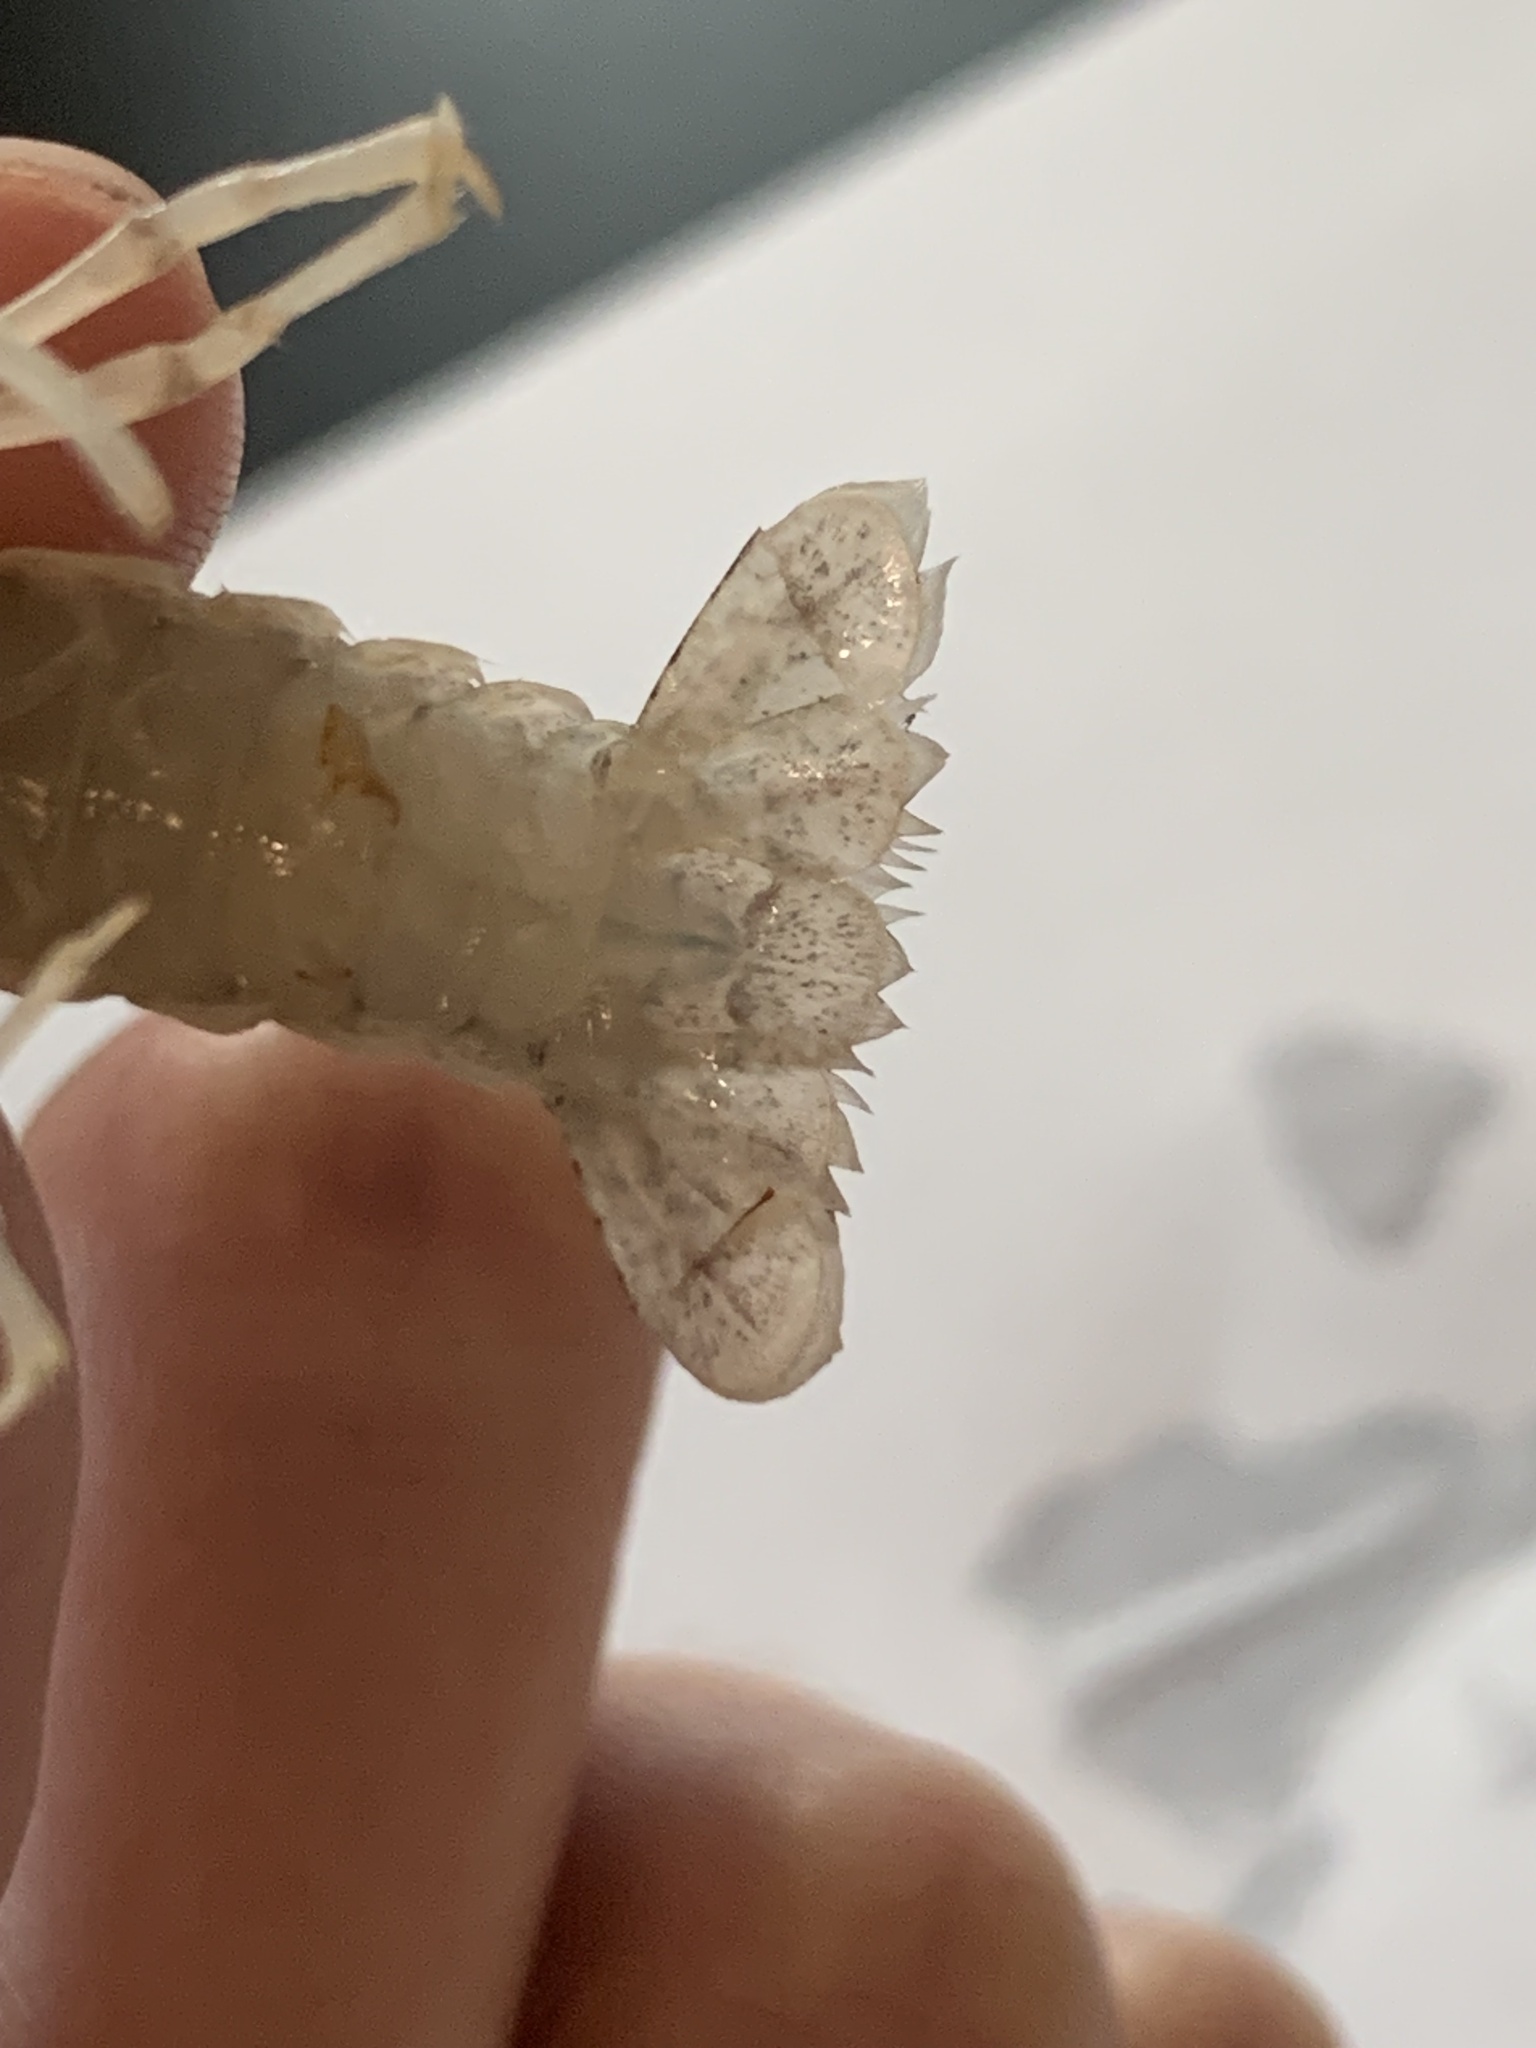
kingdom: Animalia
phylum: Arthropoda
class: Malacostraca
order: Decapoda
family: Cambaridae
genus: Procambarus
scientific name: Procambarus curdi
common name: Red river burrowing crayfish
